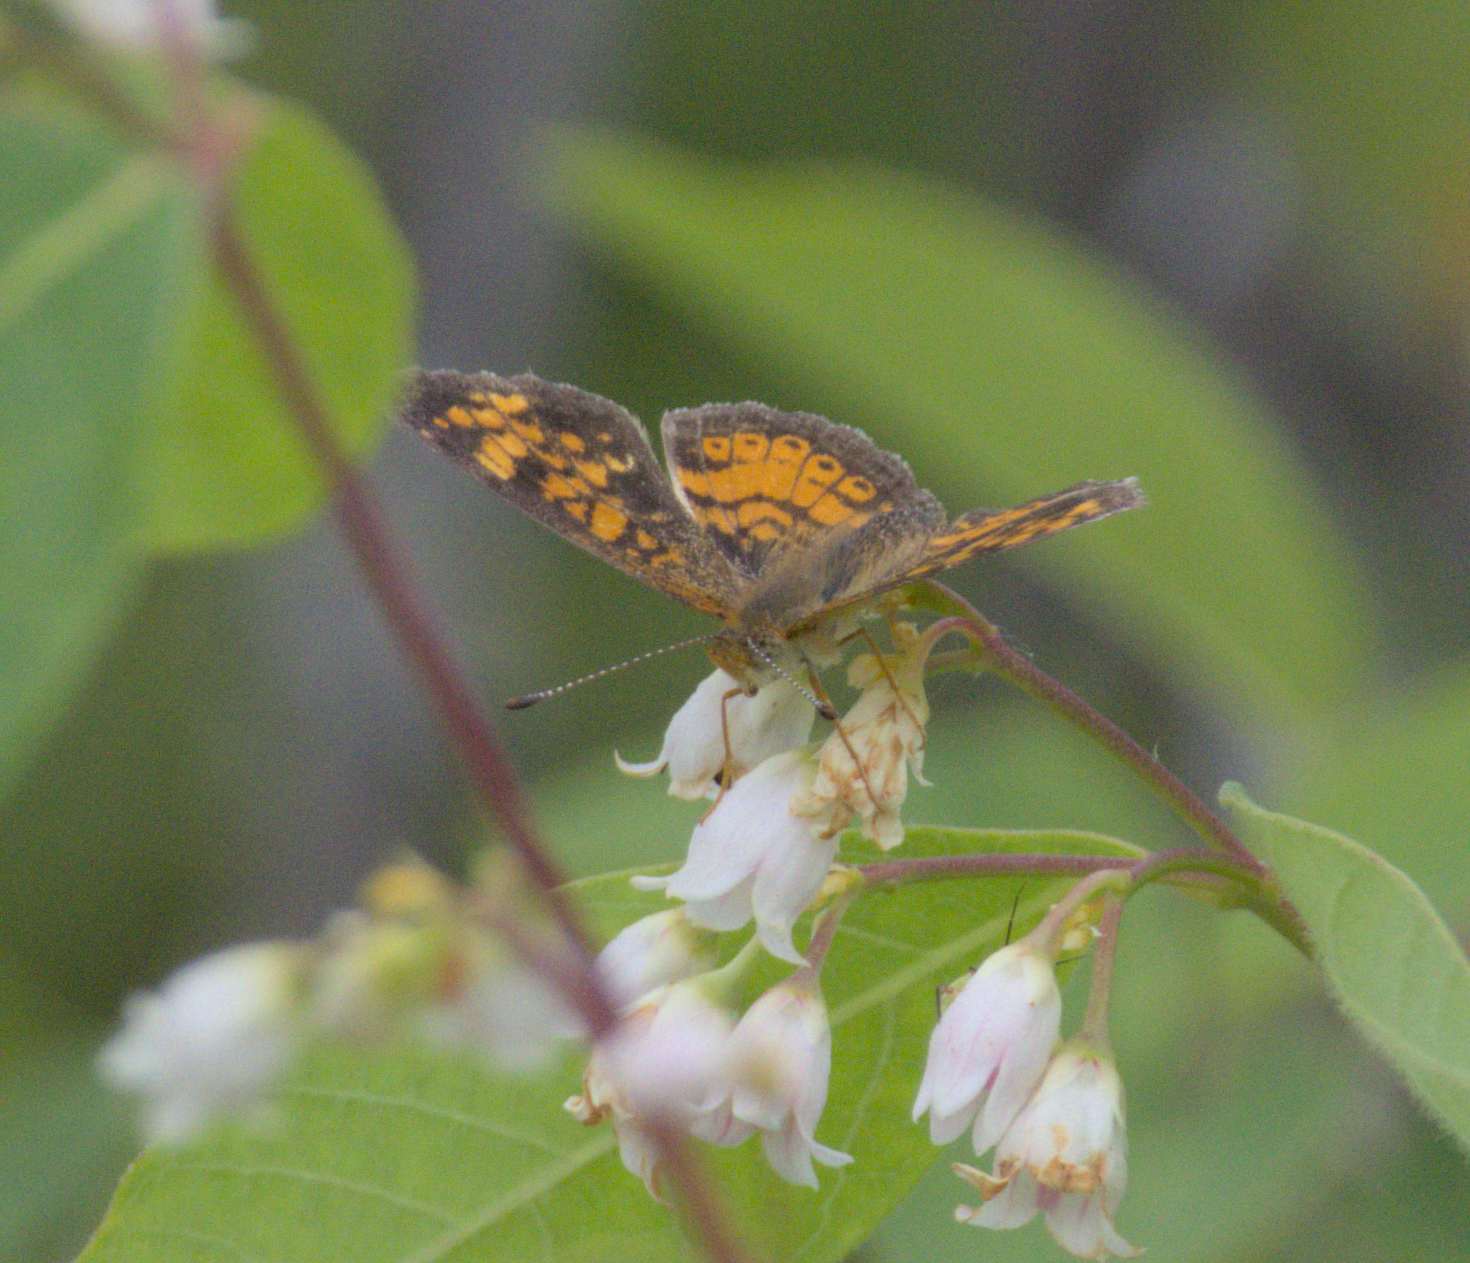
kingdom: Animalia
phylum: Arthropoda
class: Insecta
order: Lepidoptera
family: Nymphalidae
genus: Phyciodes
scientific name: Phyciodes tharos
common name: Pearl crescent
